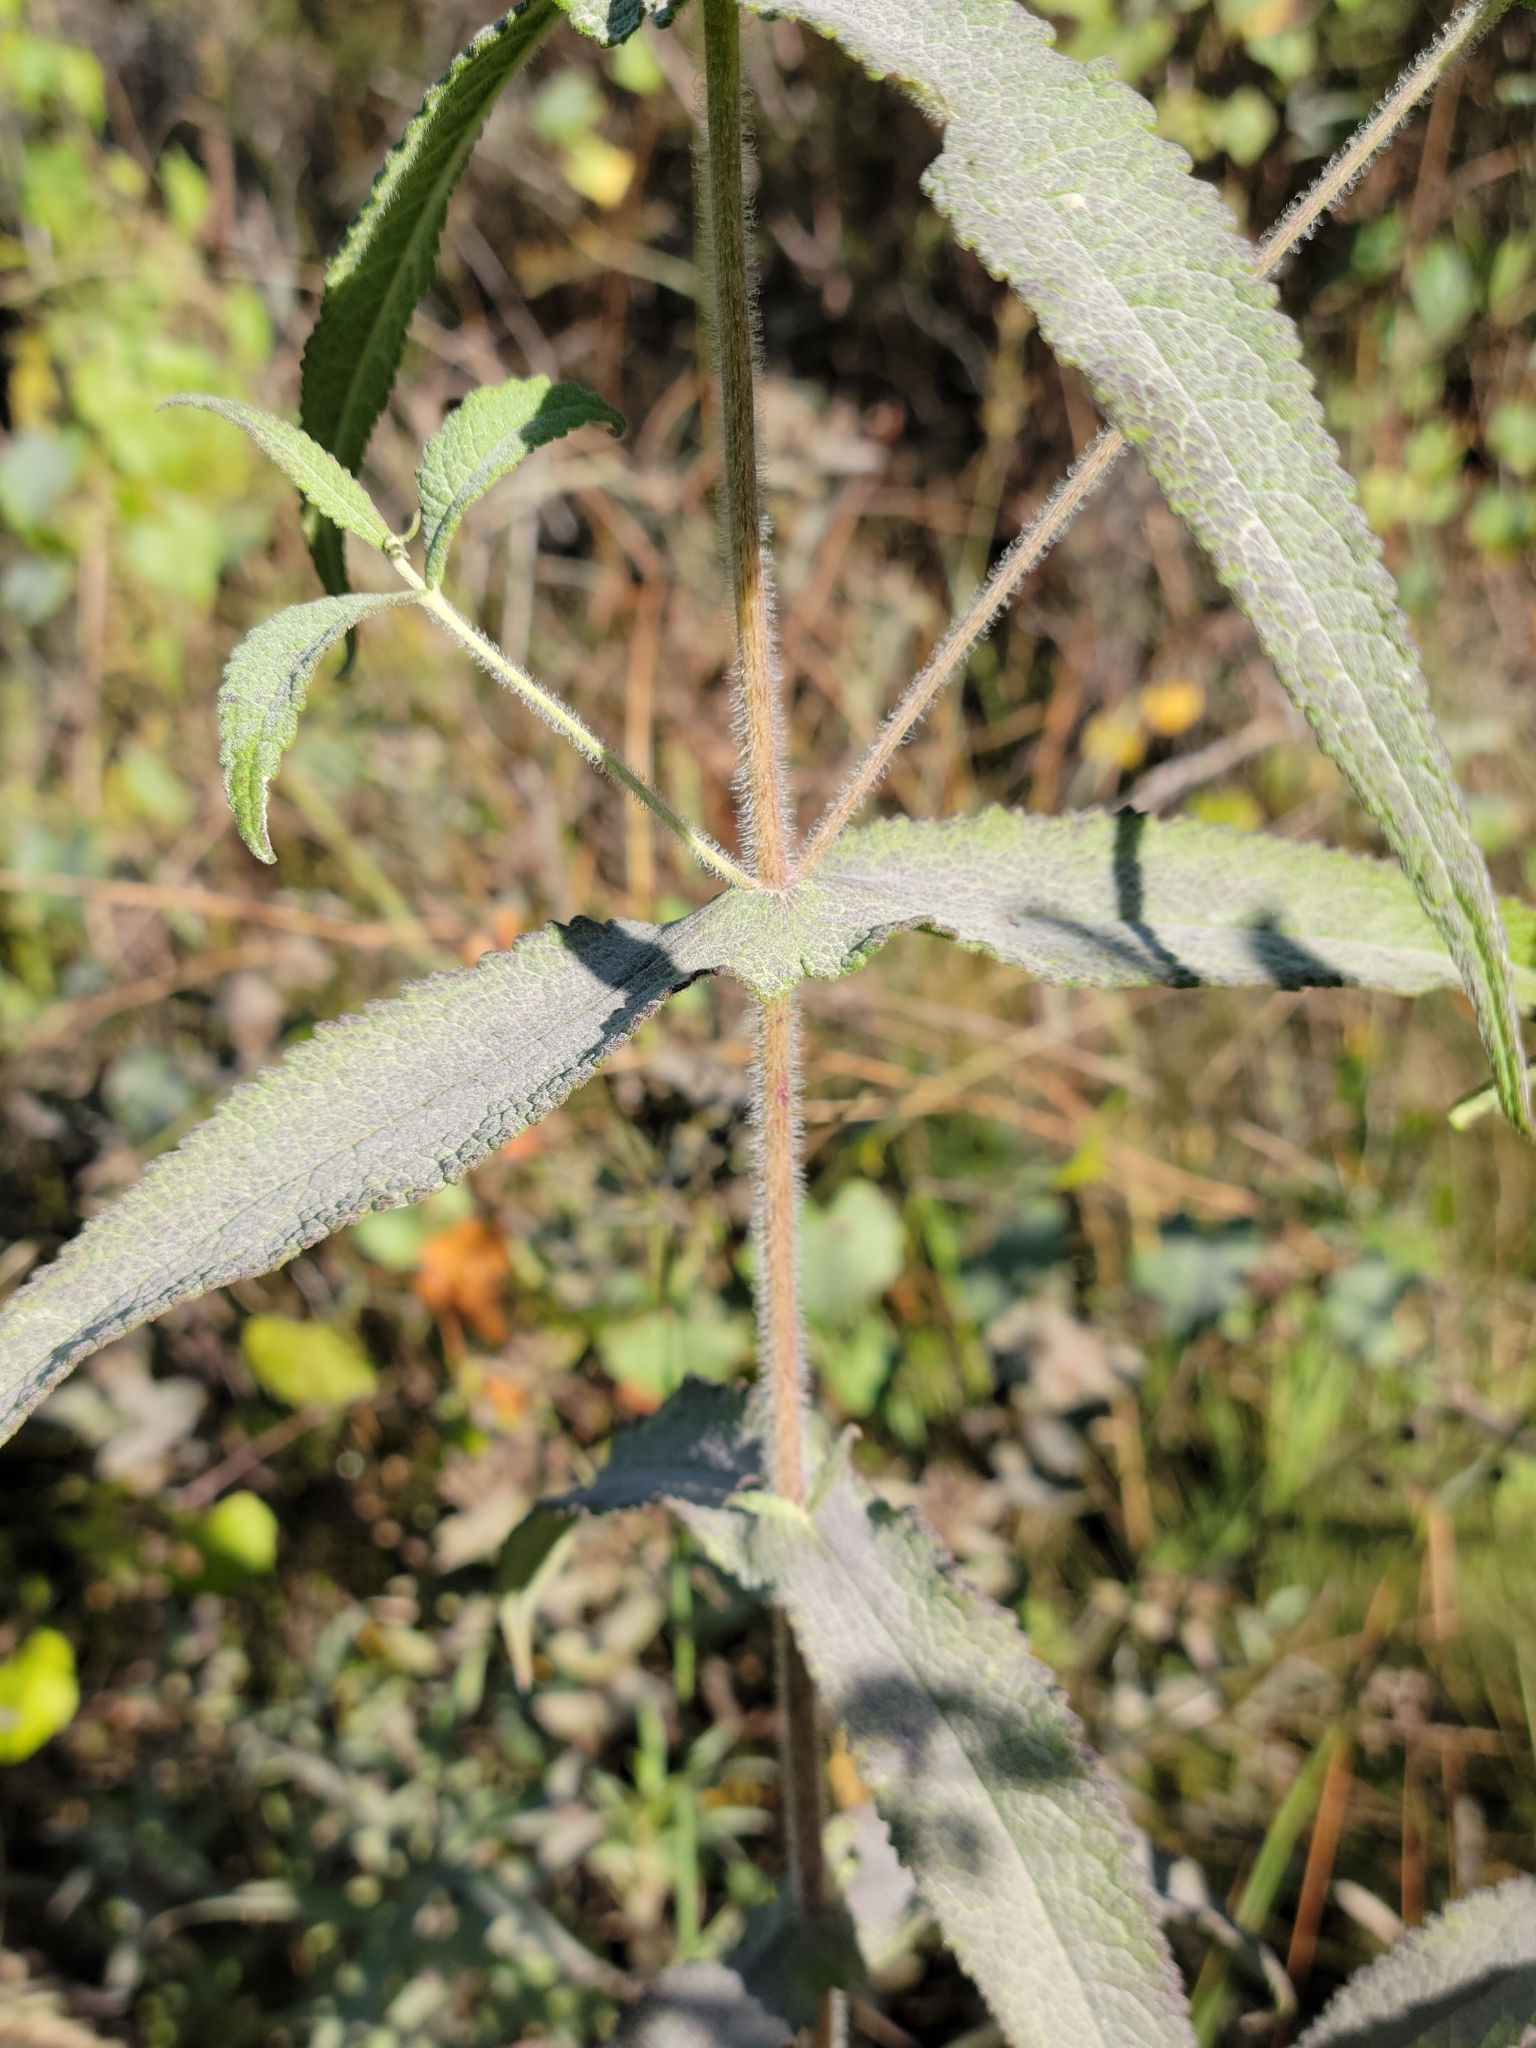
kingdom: Plantae
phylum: Tracheophyta
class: Magnoliopsida
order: Asterales
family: Asteraceae
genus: Eupatorium
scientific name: Eupatorium perfoliatum
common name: Boneset
